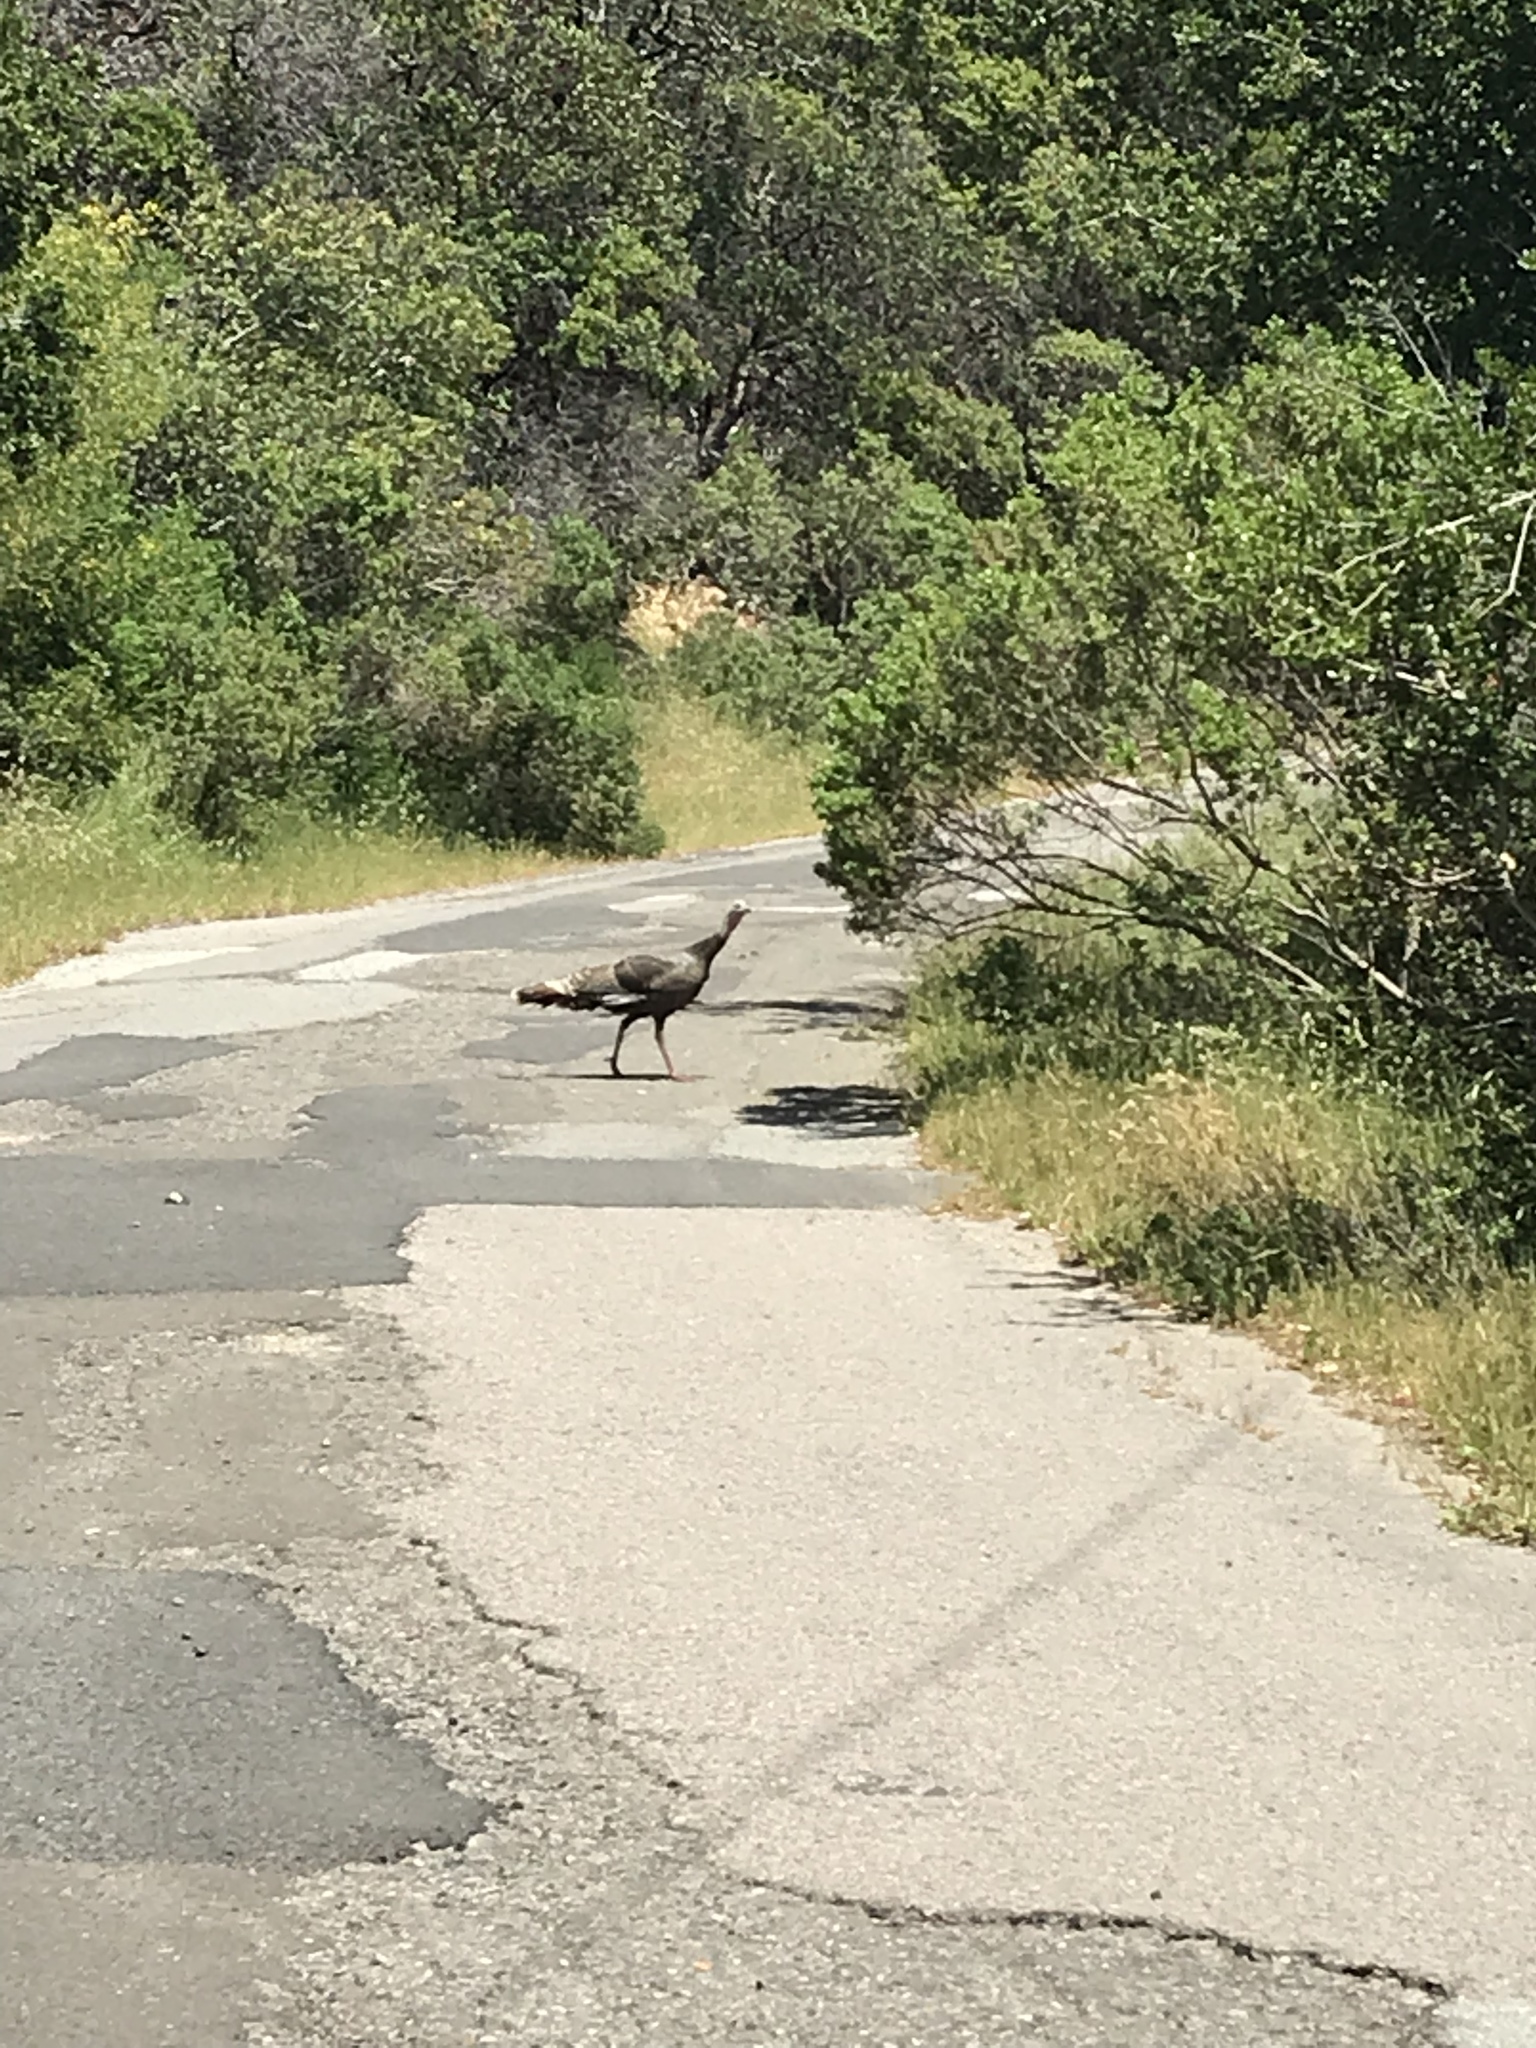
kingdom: Animalia
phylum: Chordata
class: Aves
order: Galliformes
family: Phasianidae
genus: Meleagris
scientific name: Meleagris gallopavo
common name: Wild turkey
